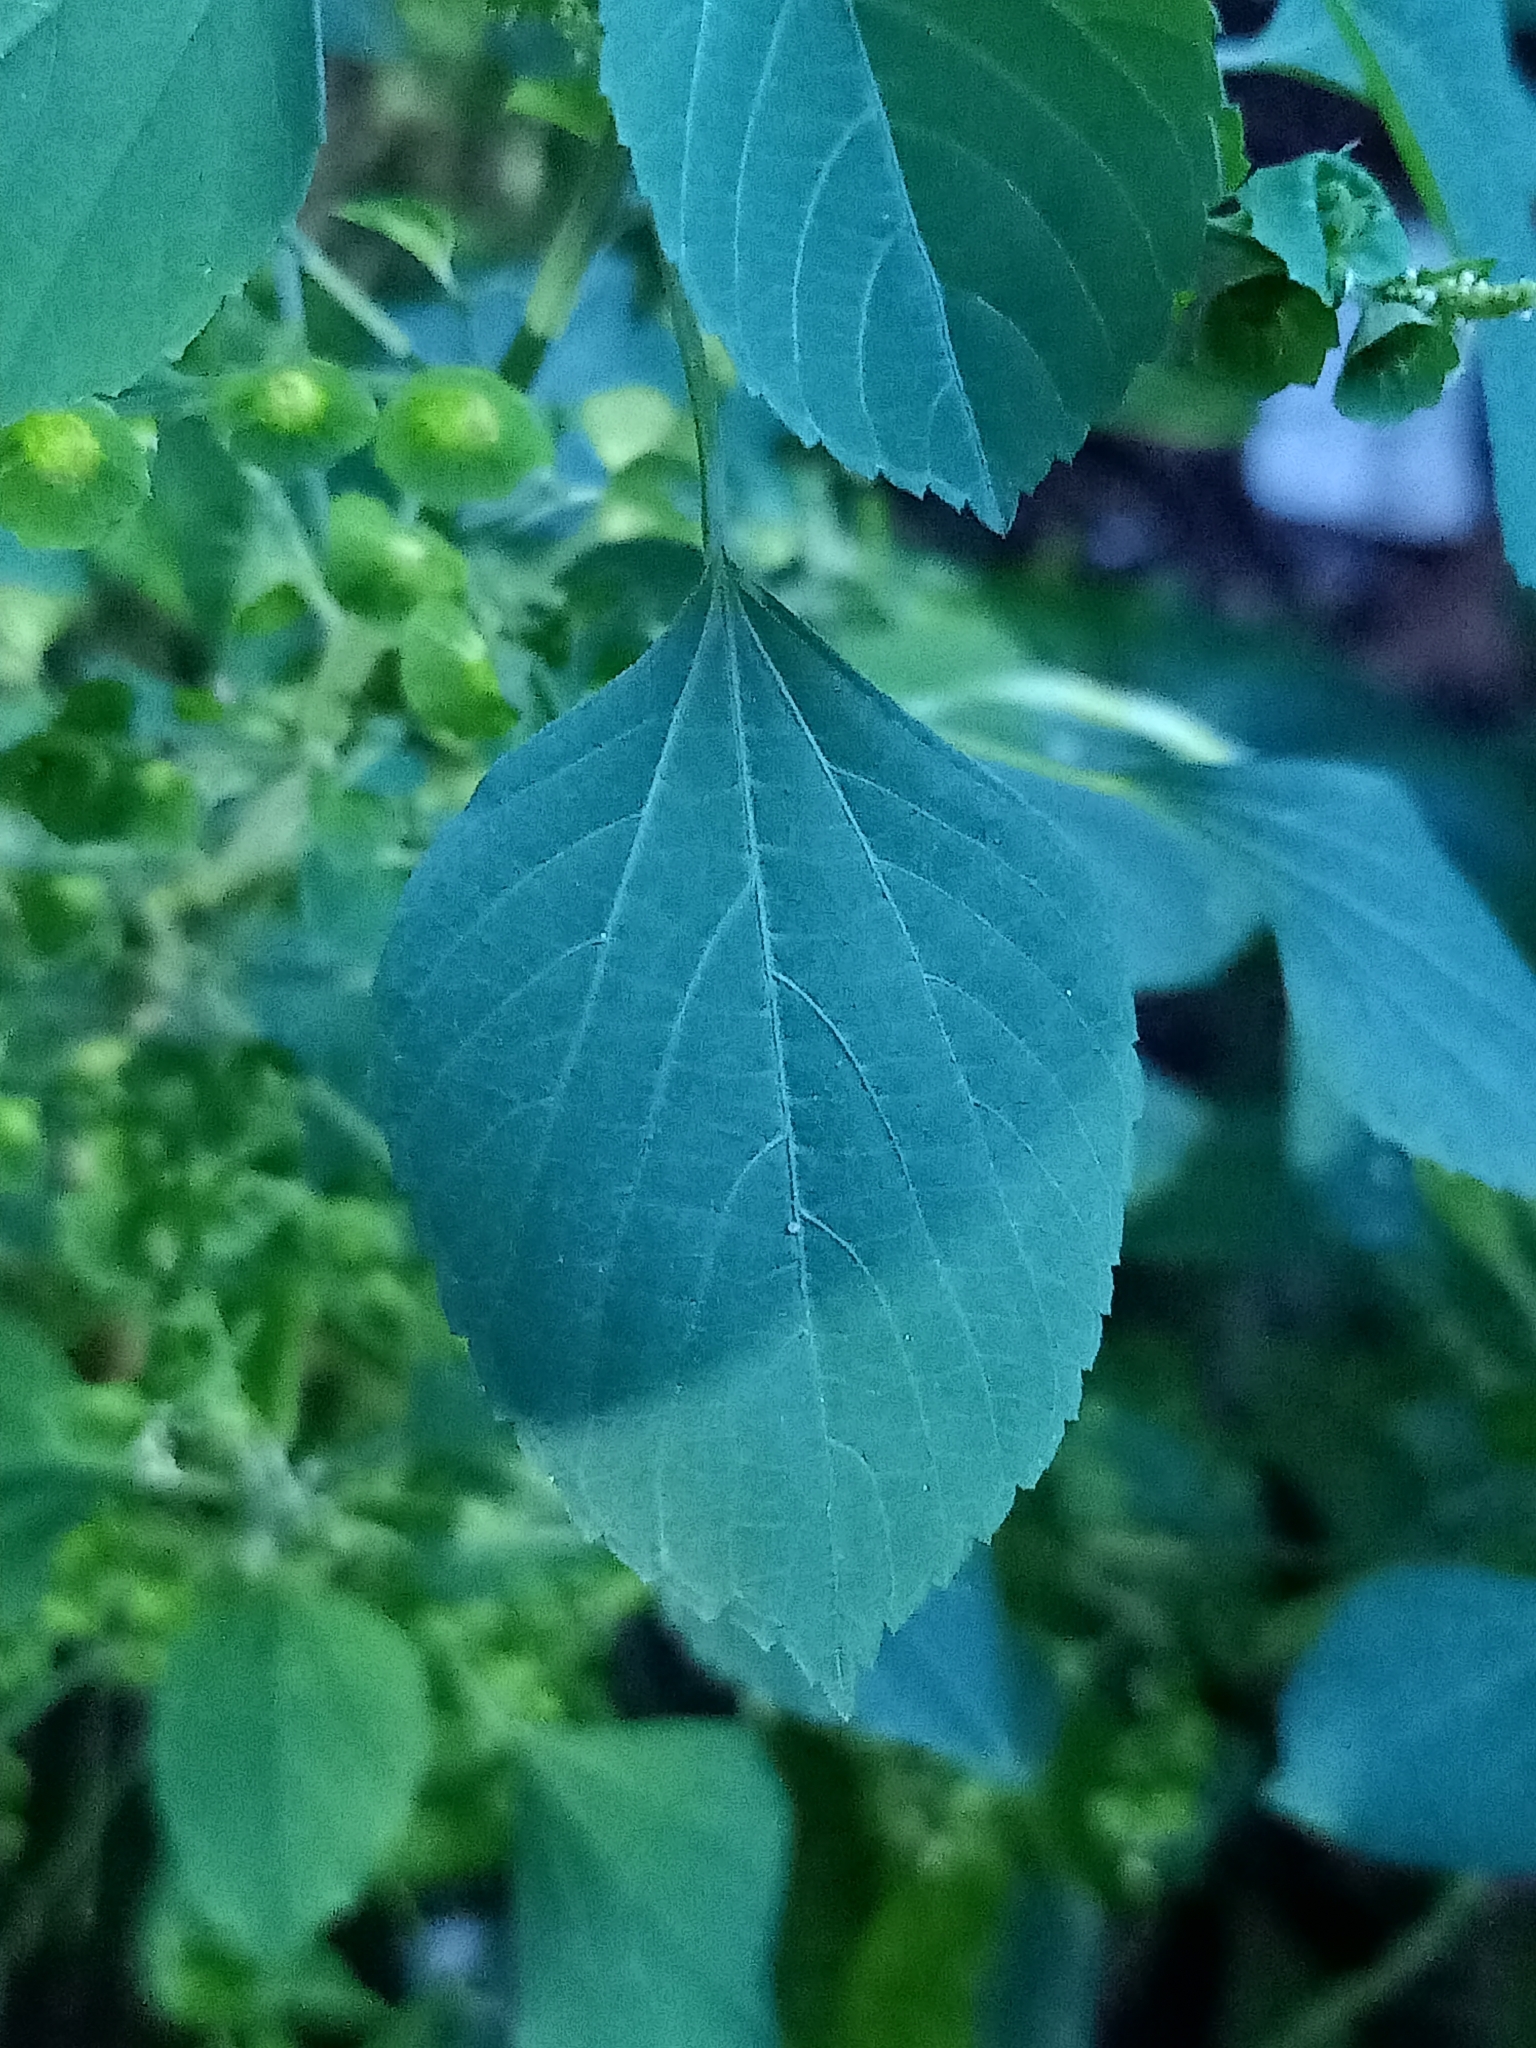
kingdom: Plantae
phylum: Tracheophyta
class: Magnoliopsida
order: Malpighiales
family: Euphorbiaceae
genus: Acalypha
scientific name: Acalypha indica
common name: Indian acalypha
